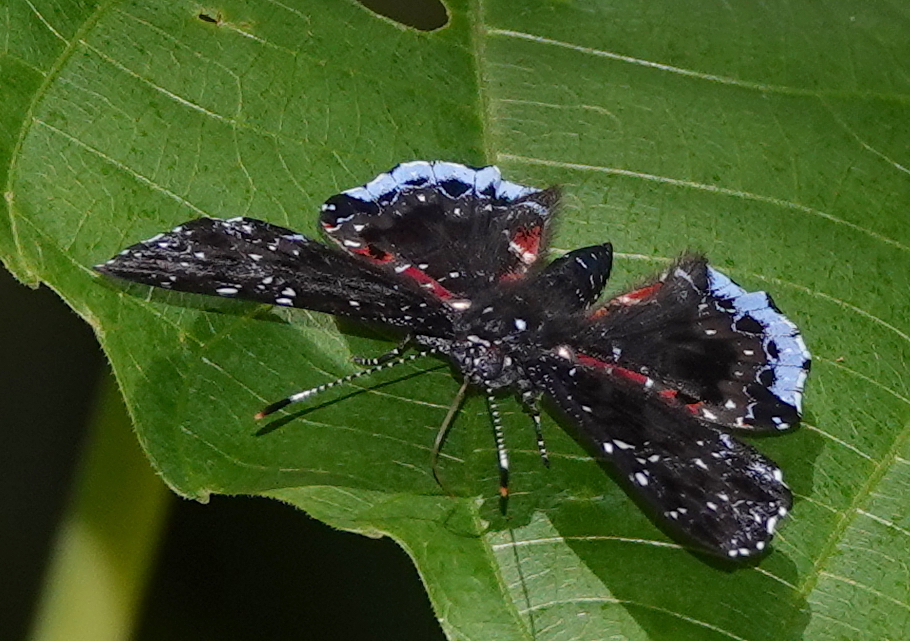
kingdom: Animalia
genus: Calydna
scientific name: Calydna
